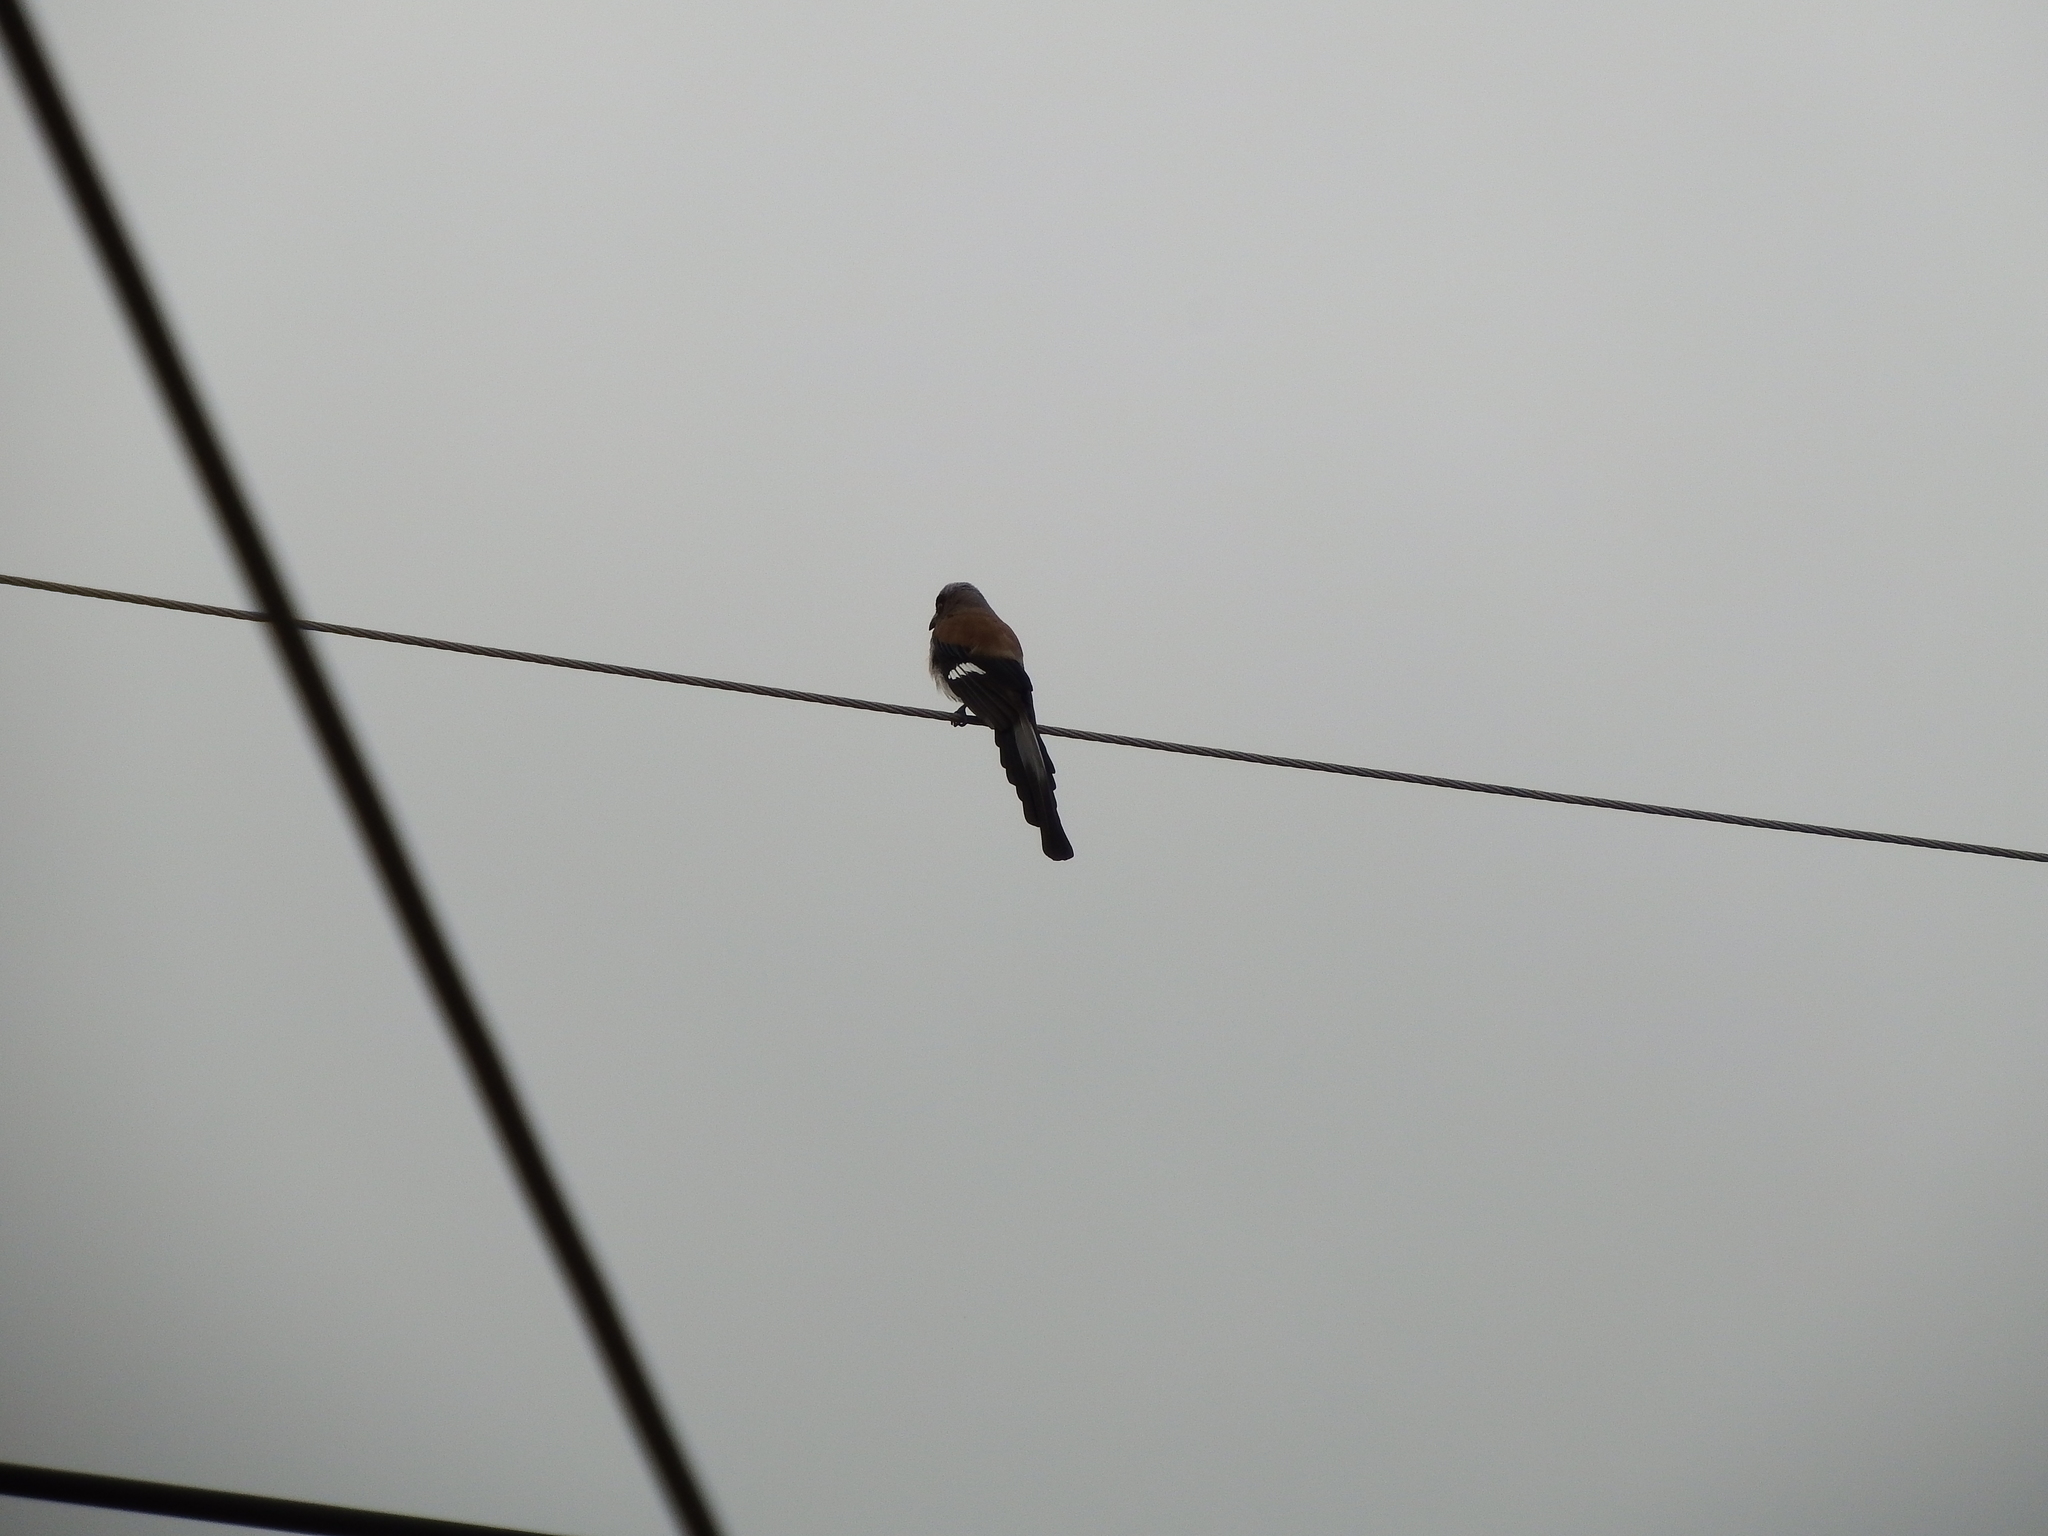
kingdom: Animalia
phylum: Chordata
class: Aves
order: Passeriformes
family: Corvidae
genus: Dendrocitta
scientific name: Dendrocitta formosae
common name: Grey treepie
